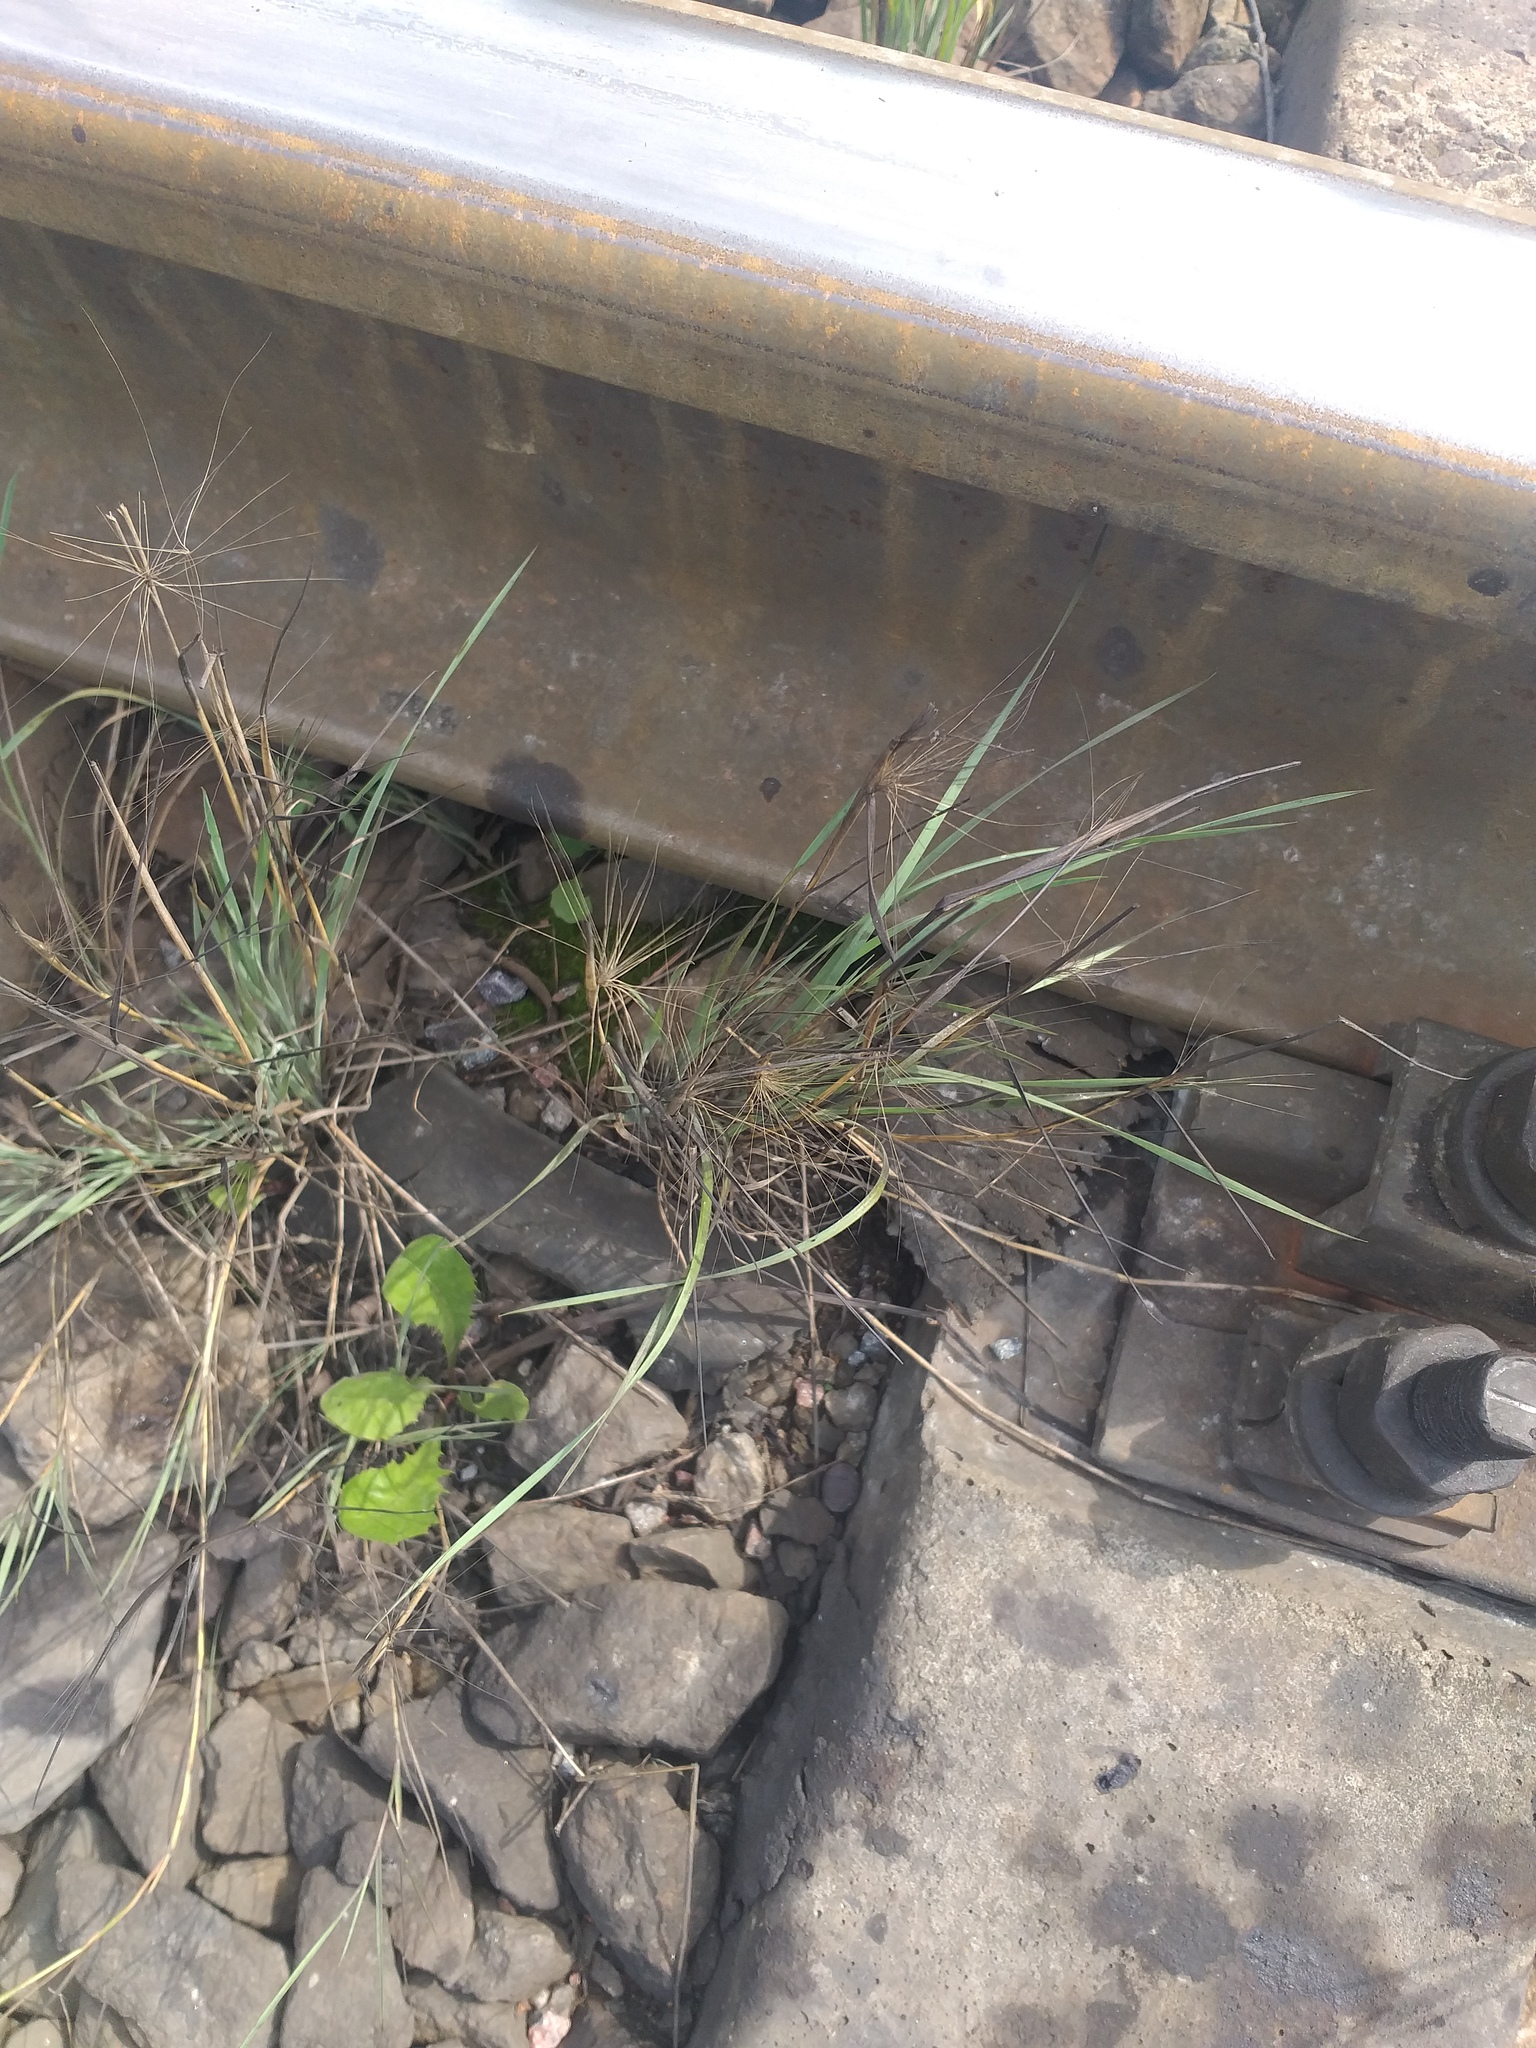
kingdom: Plantae
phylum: Tracheophyta
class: Liliopsida
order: Poales
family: Poaceae
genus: Hordeum
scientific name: Hordeum jubatum
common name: Foxtail barley
